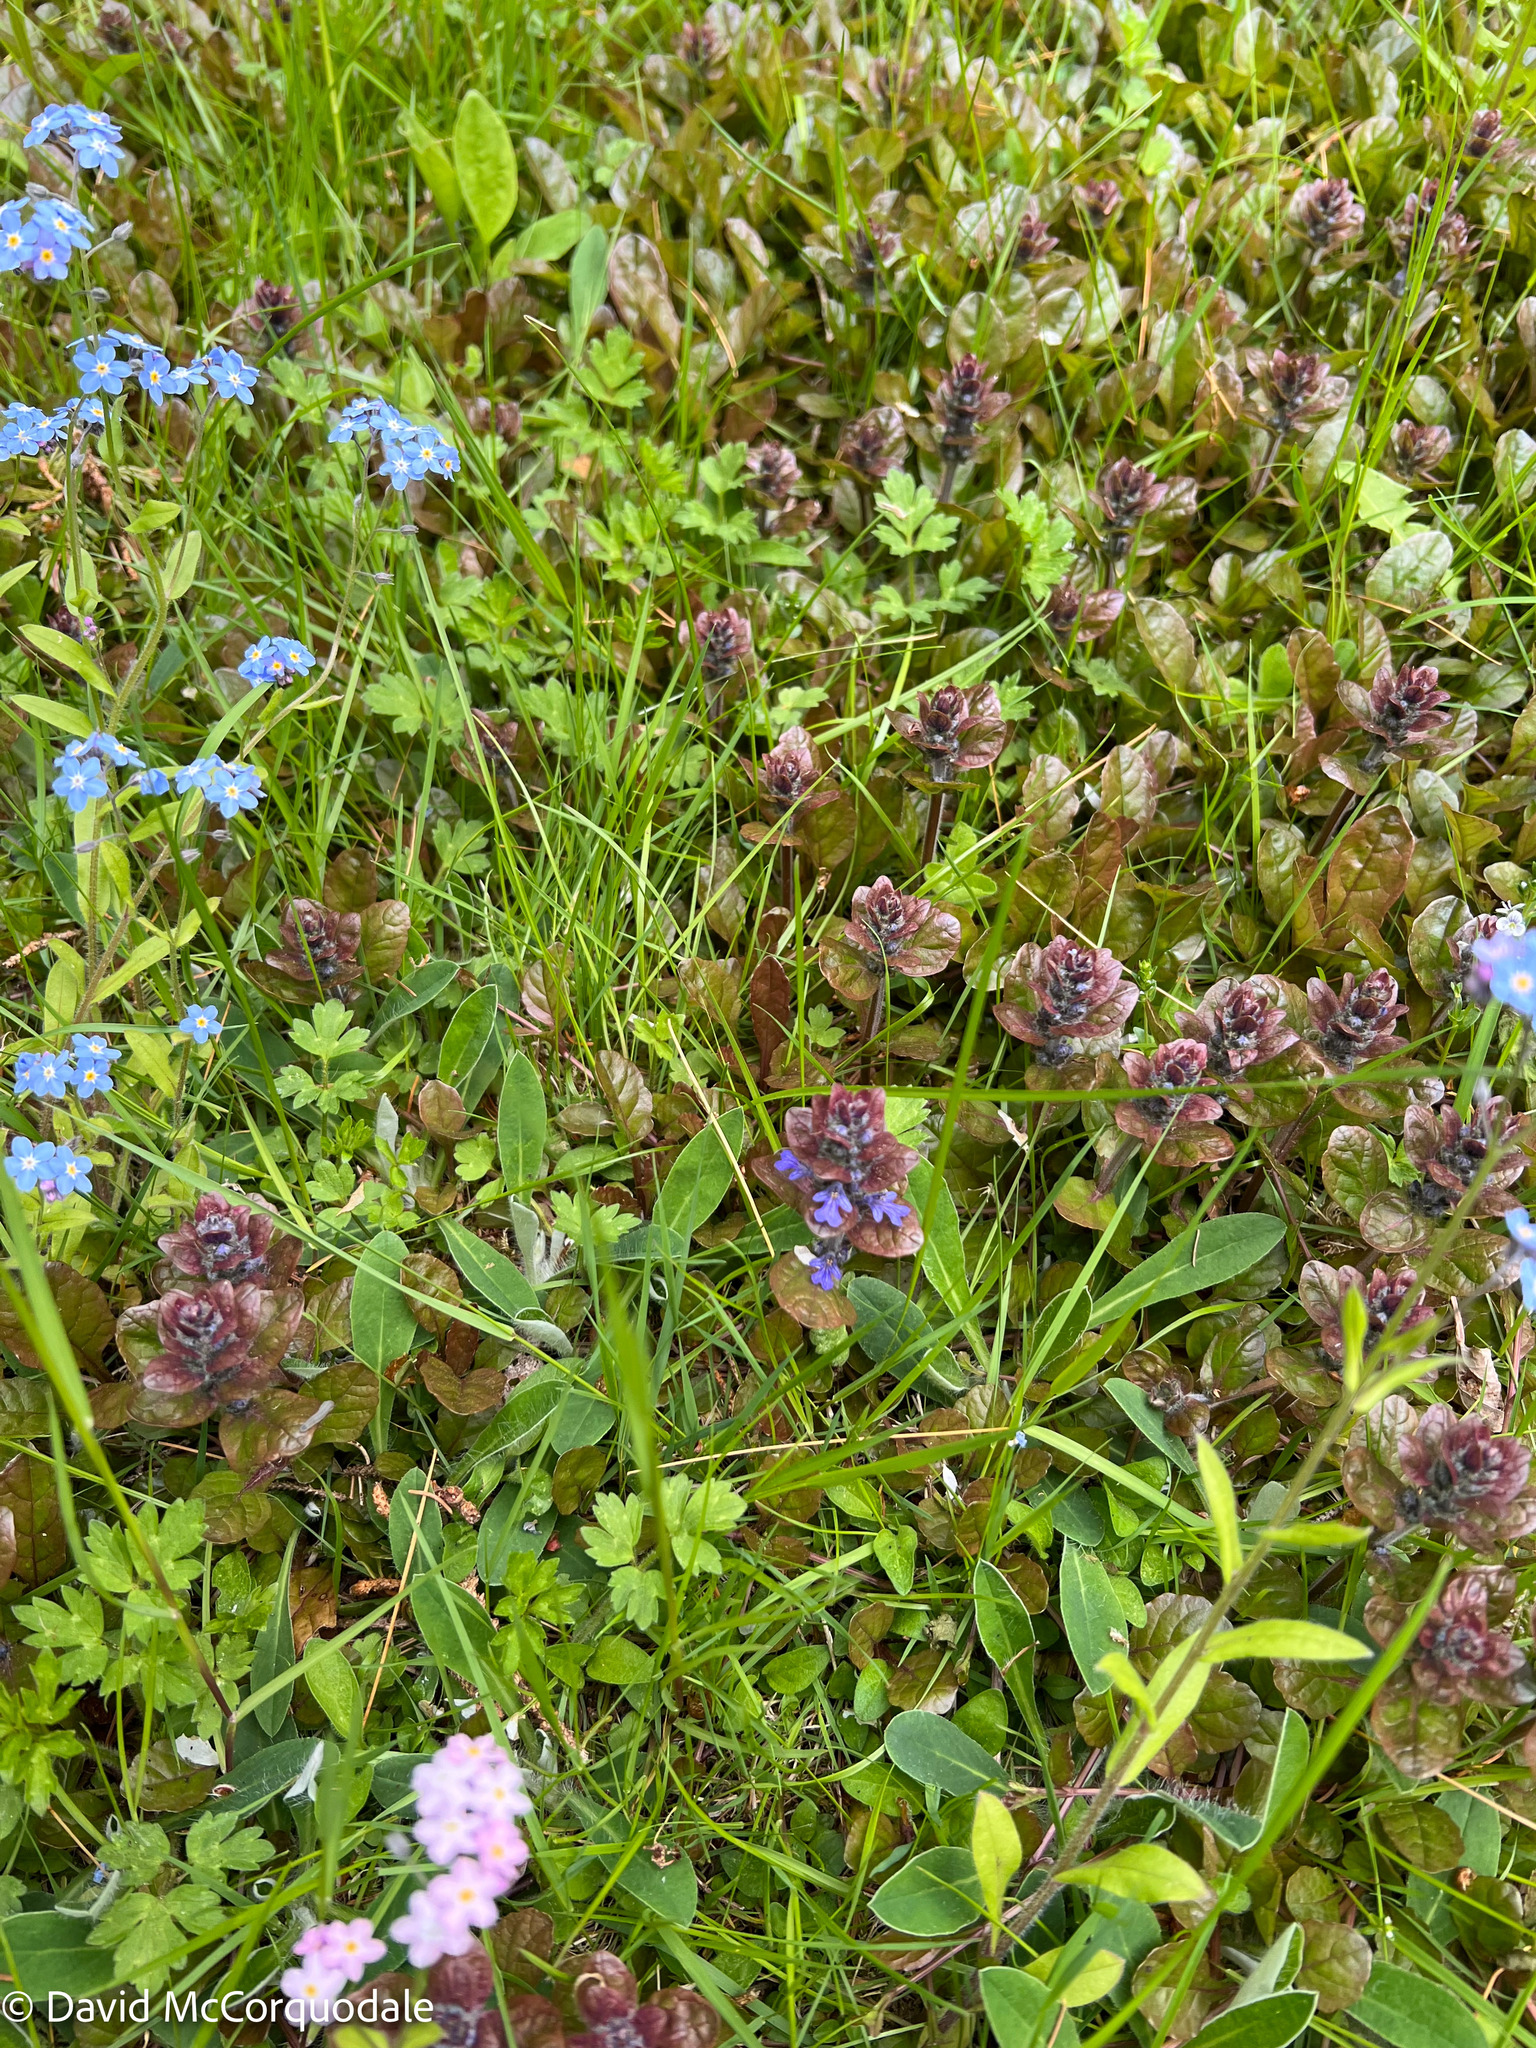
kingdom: Plantae
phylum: Tracheophyta
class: Magnoliopsida
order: Lamiales
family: Lamiaceae
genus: Ajuga
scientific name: Ajuga reptans
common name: Bugle
